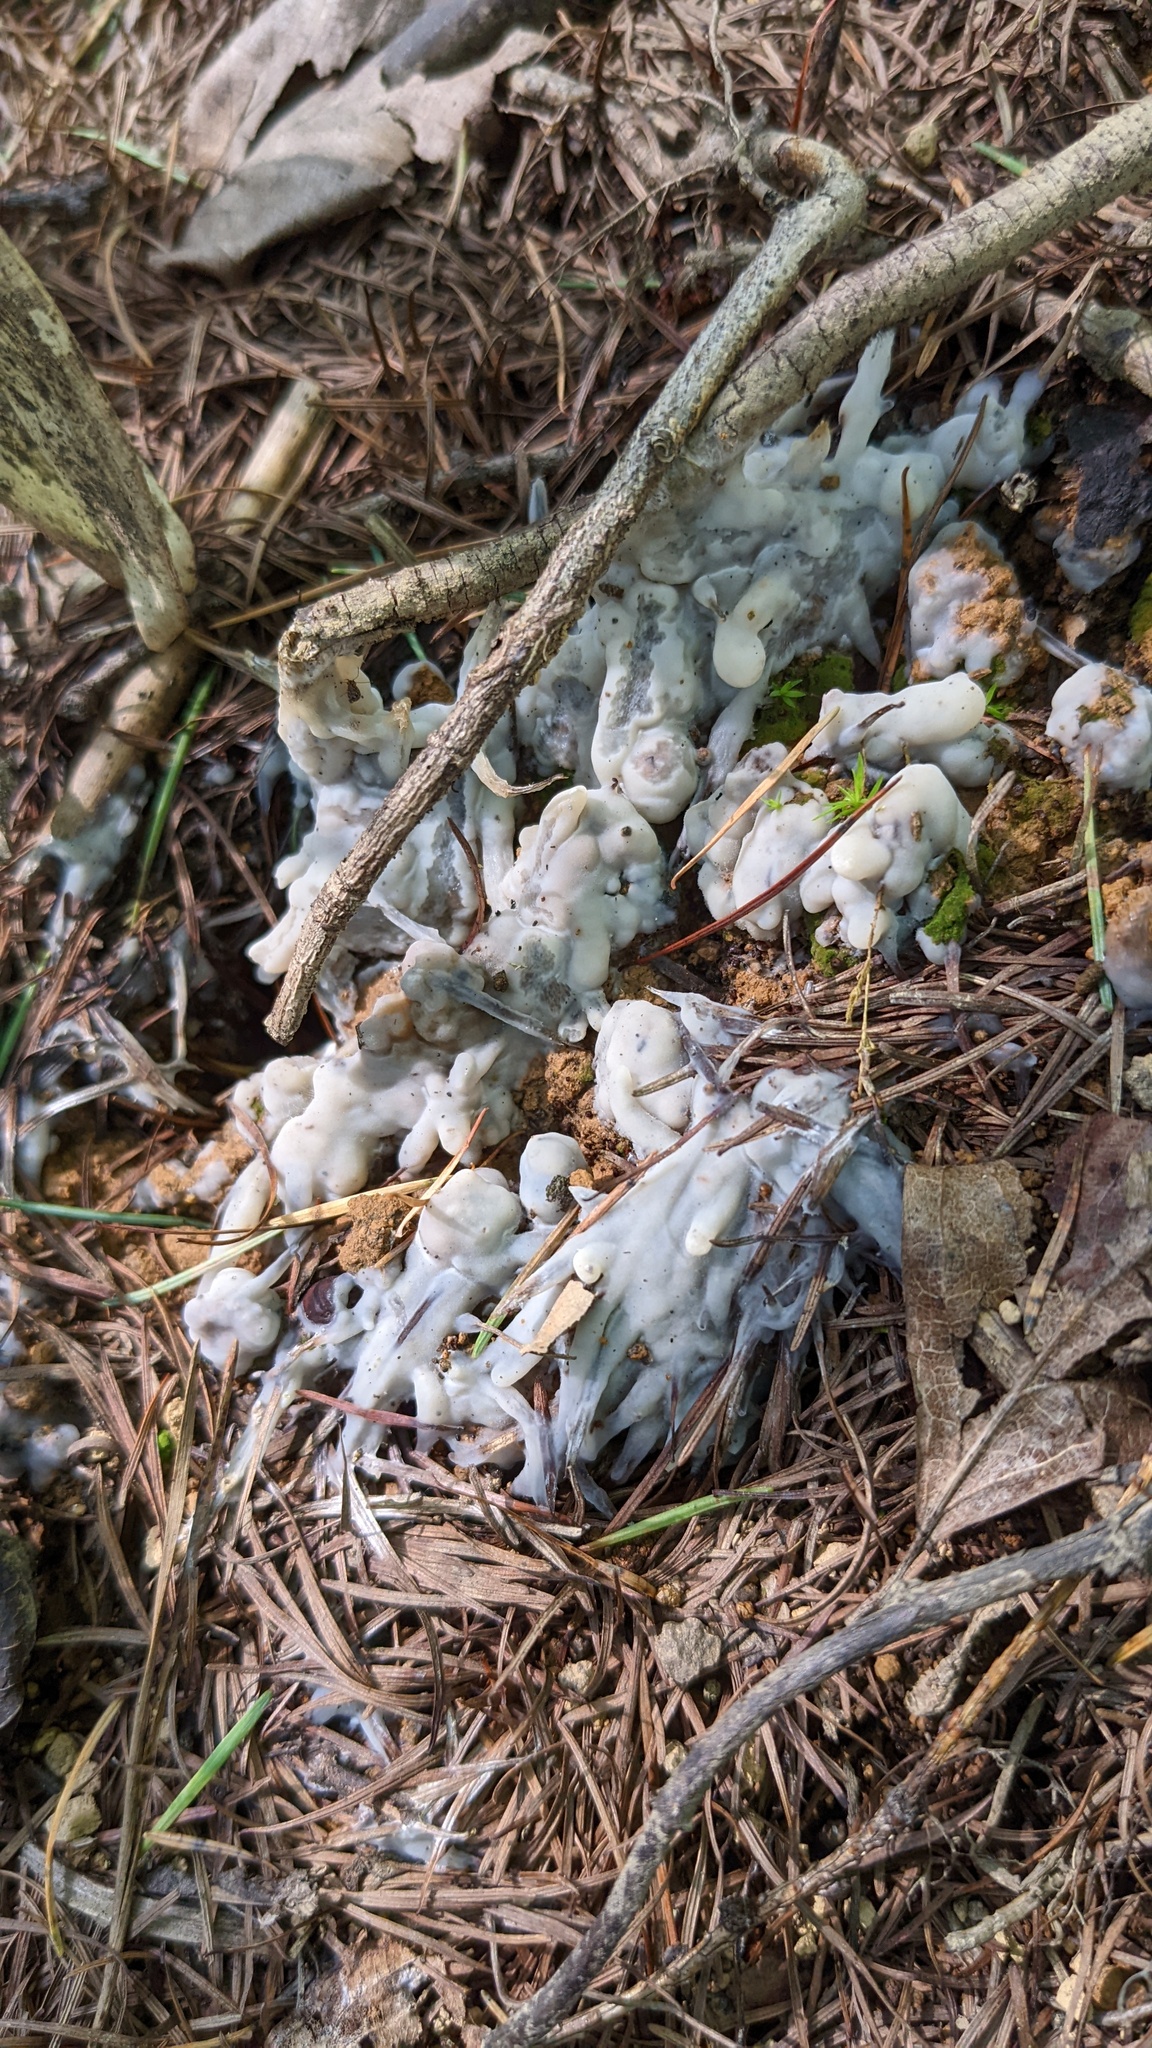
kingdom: Fungi
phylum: Basidiomycota
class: Agaricomycetes
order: Sebacinales
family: Sebacinaceae
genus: Sebacina
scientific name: Sebacina incrustans
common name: Enveloping crust
